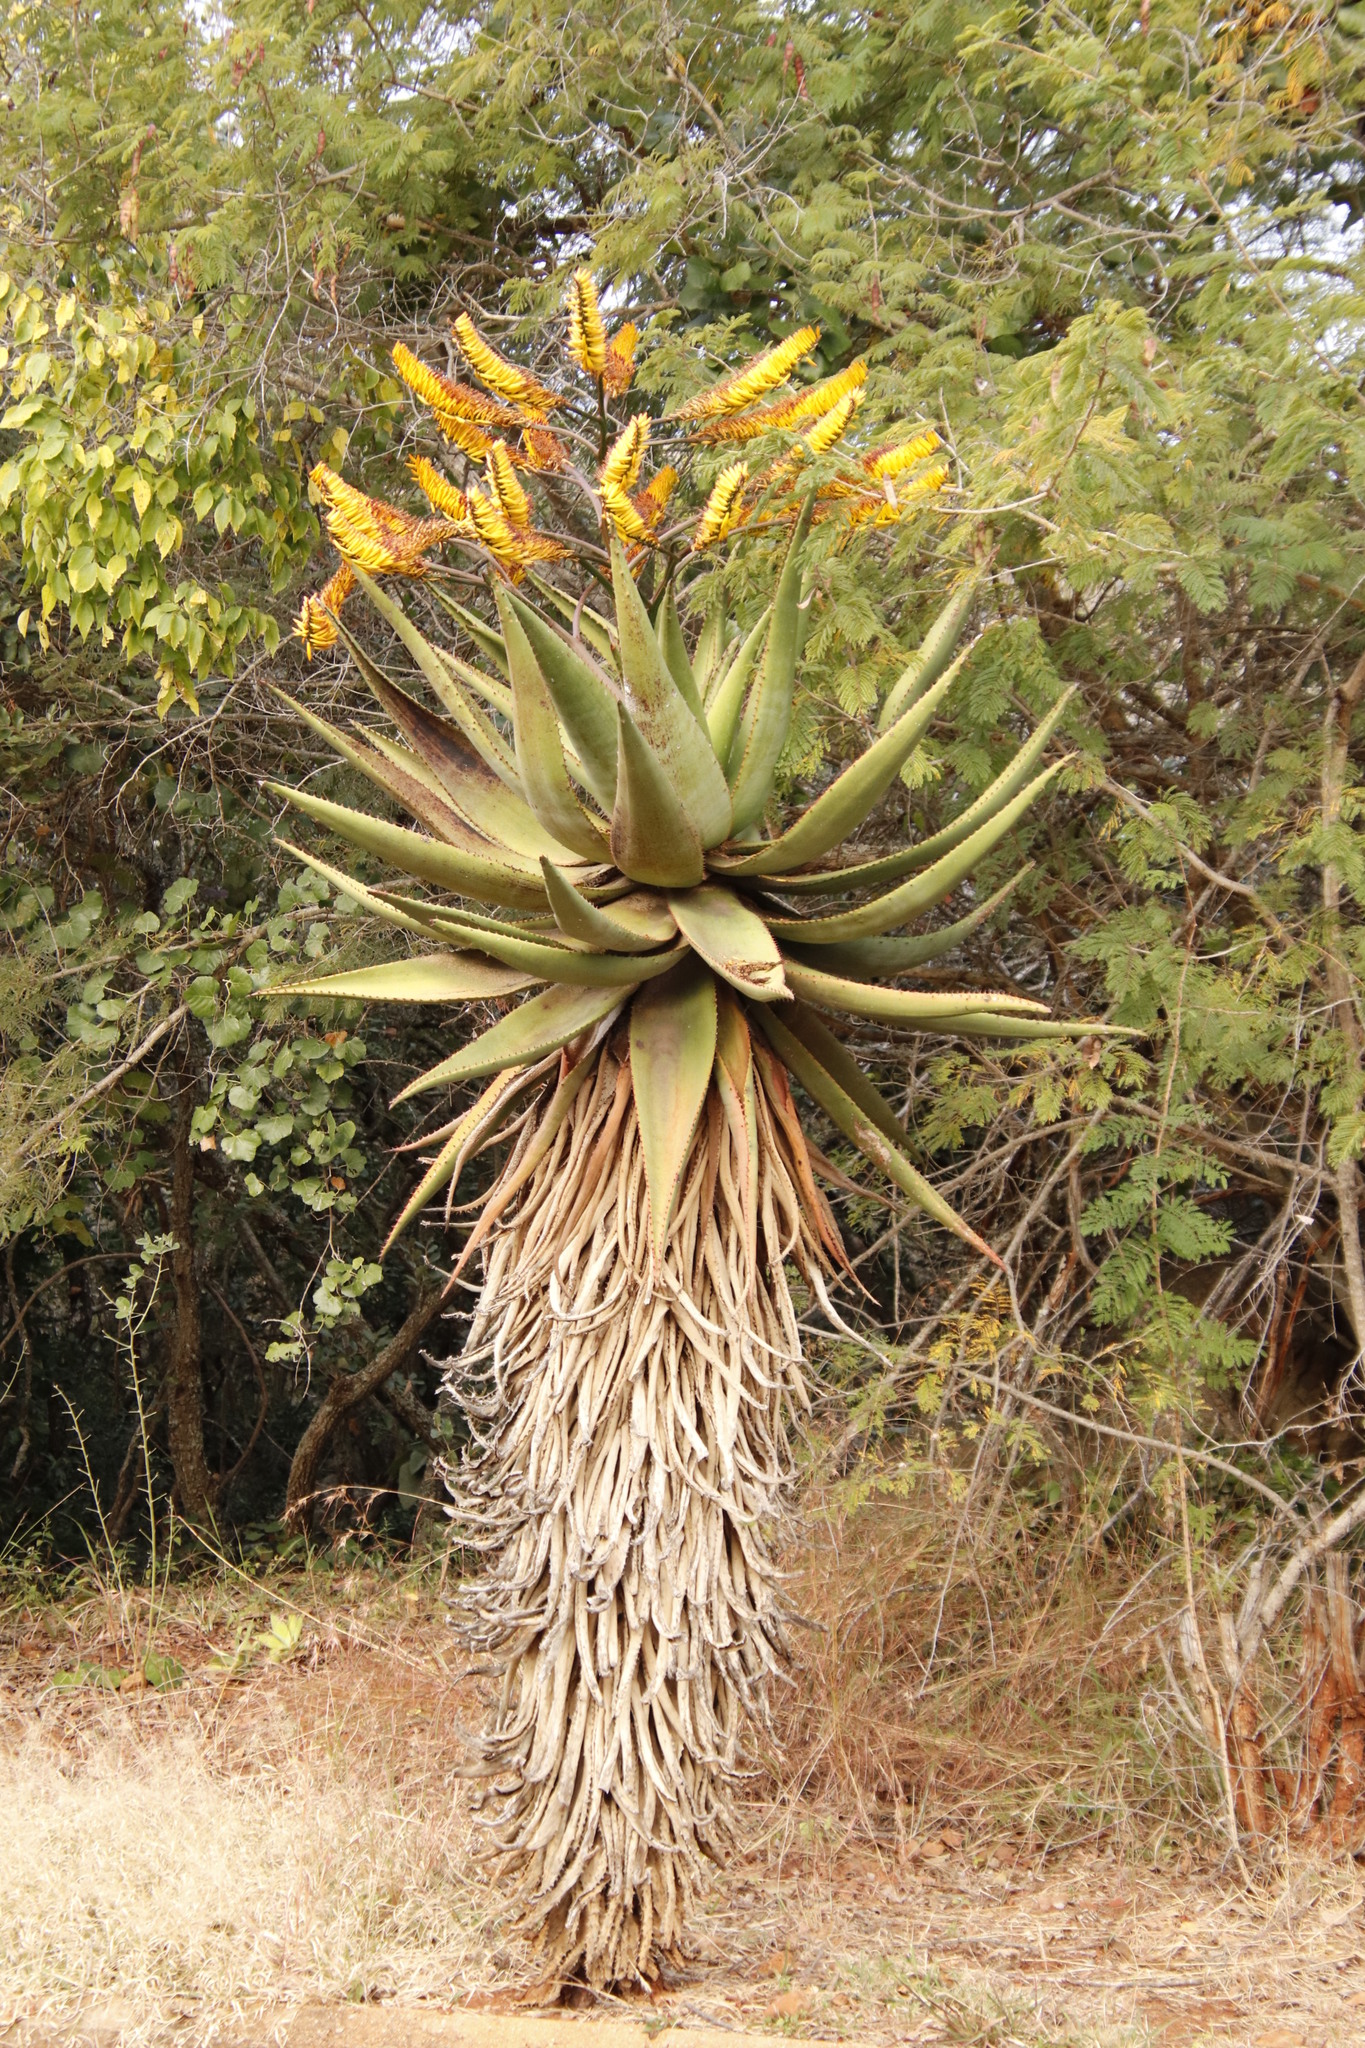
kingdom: Plantae
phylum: Tracheophyta
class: Liliopsida
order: Asparagales
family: Asphodelaceae
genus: Aloe
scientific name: Aloe marlothii
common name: Flat-flowered aloe
